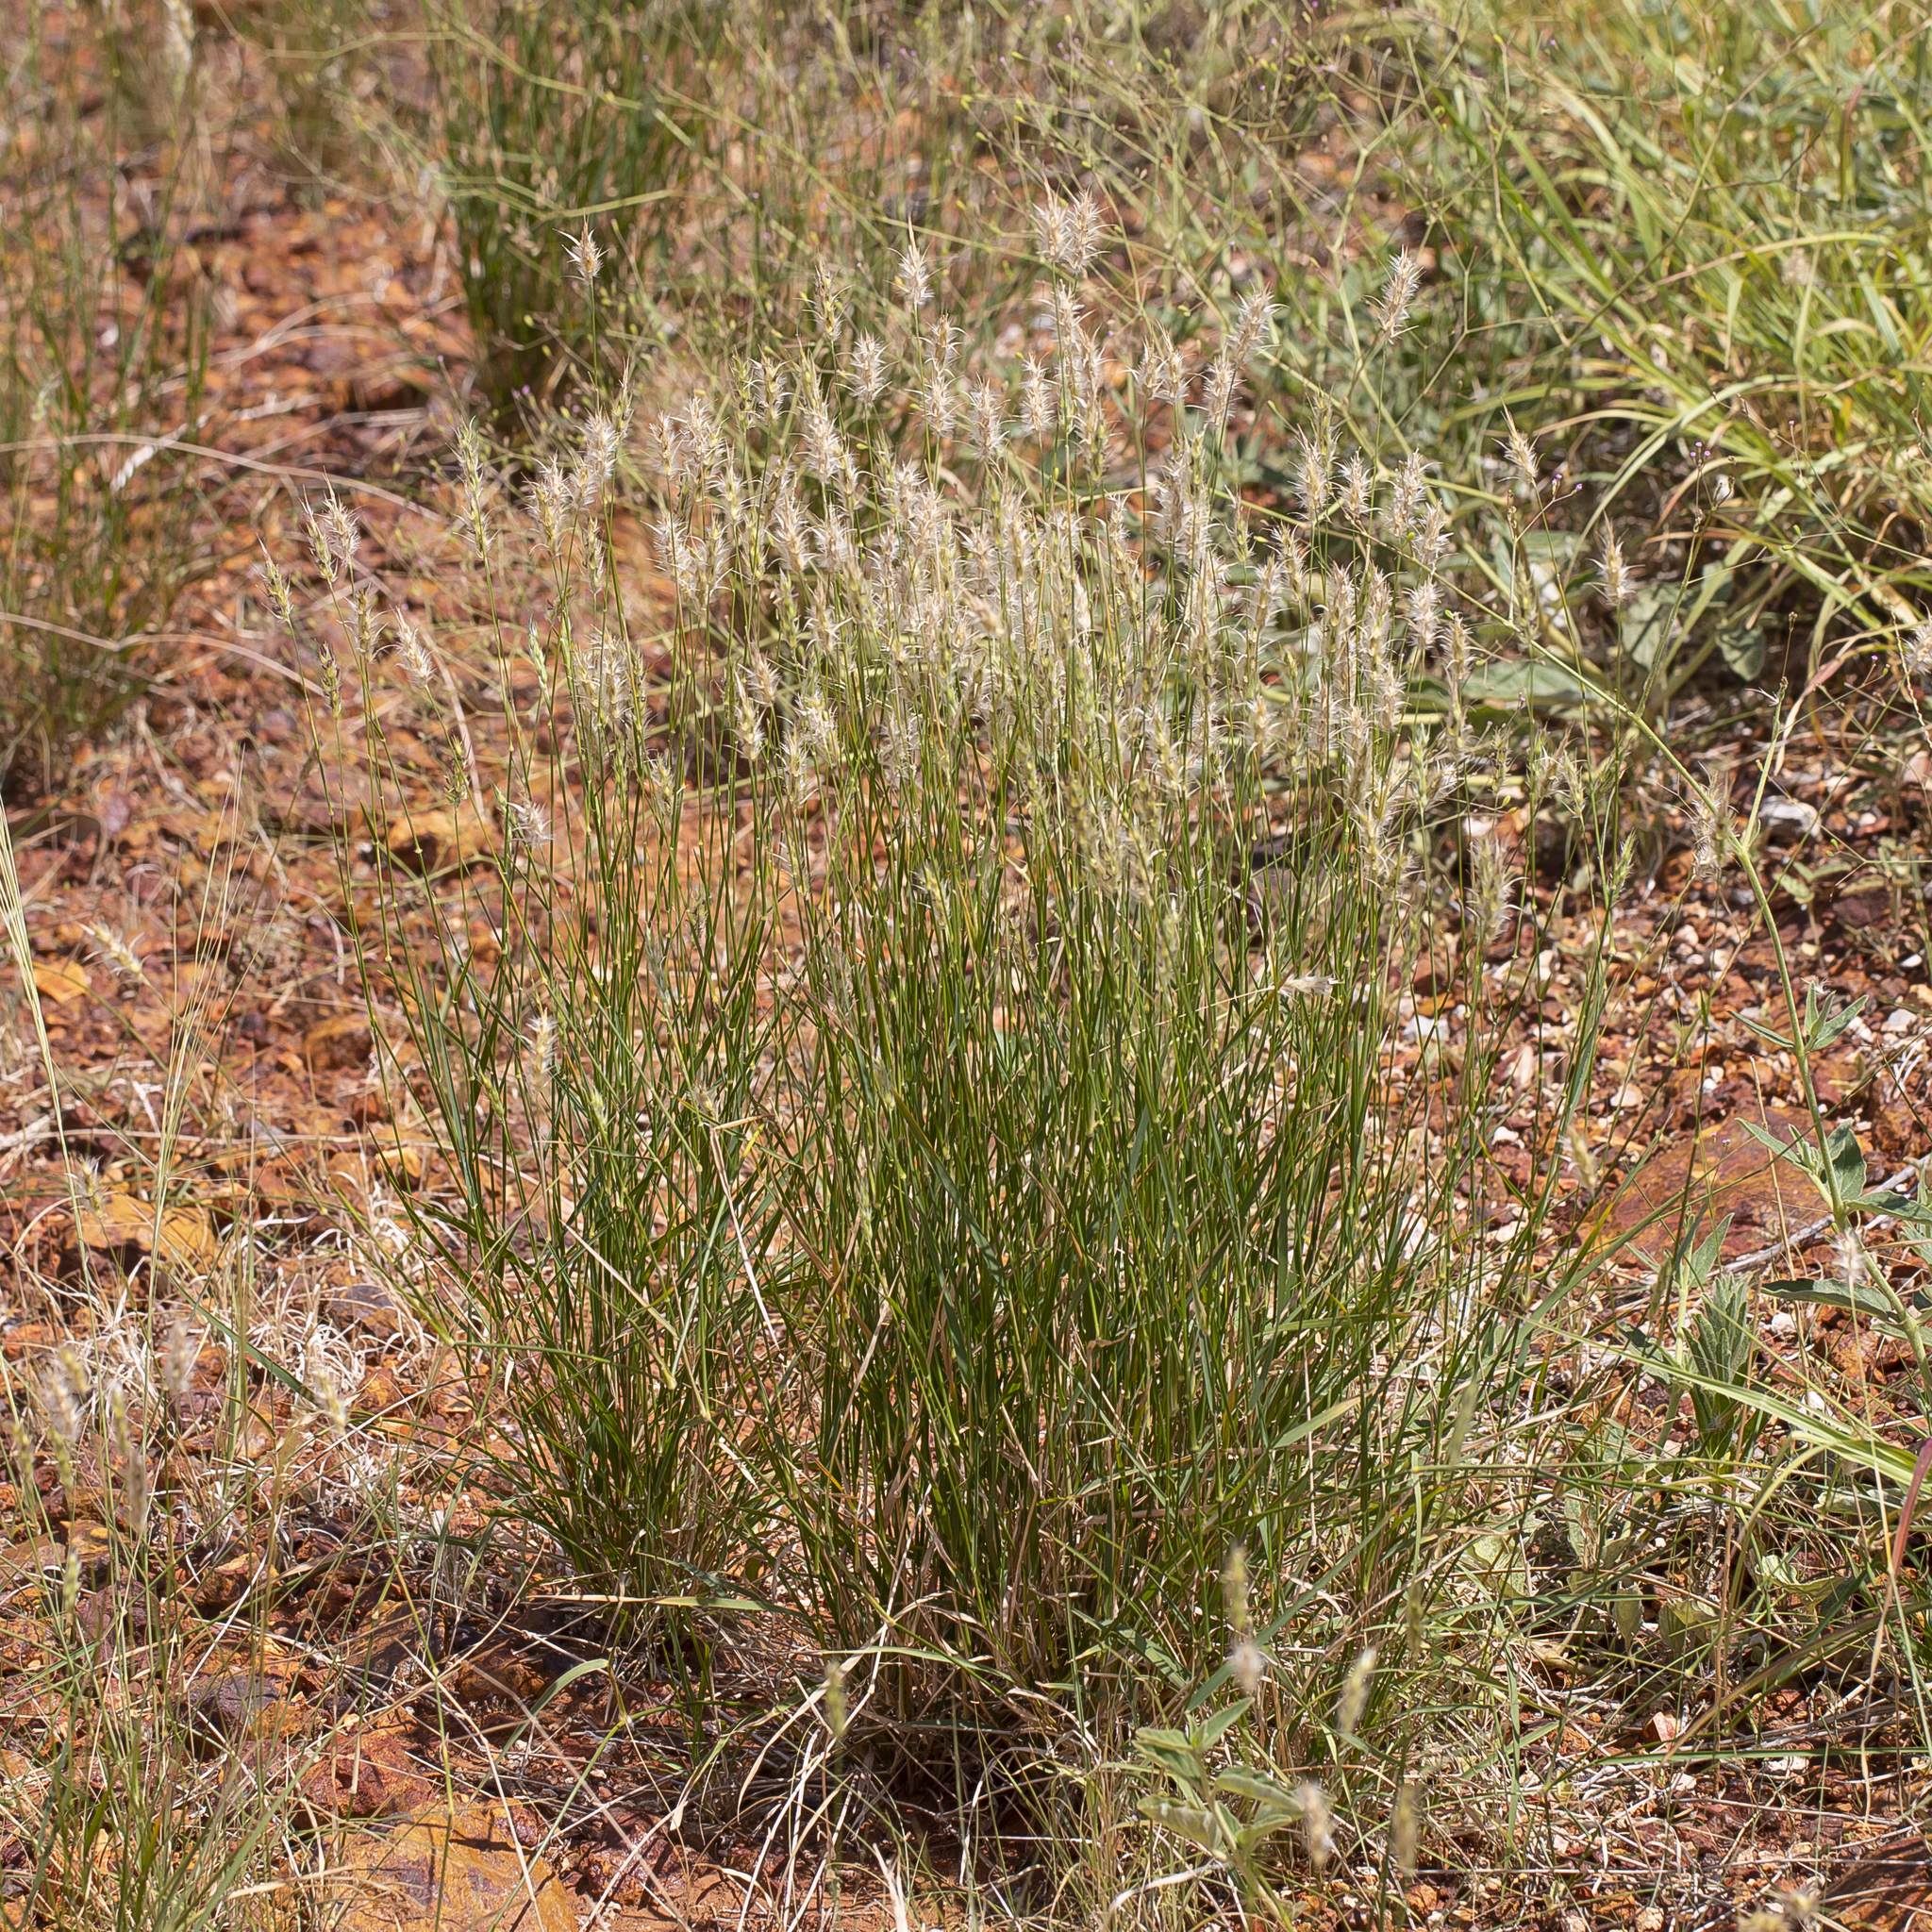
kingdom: Plantae
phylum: Tracheophyta
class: Liliopsida
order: Poales
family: Poaceae
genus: Neurachne
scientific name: Neurachne muelleri
